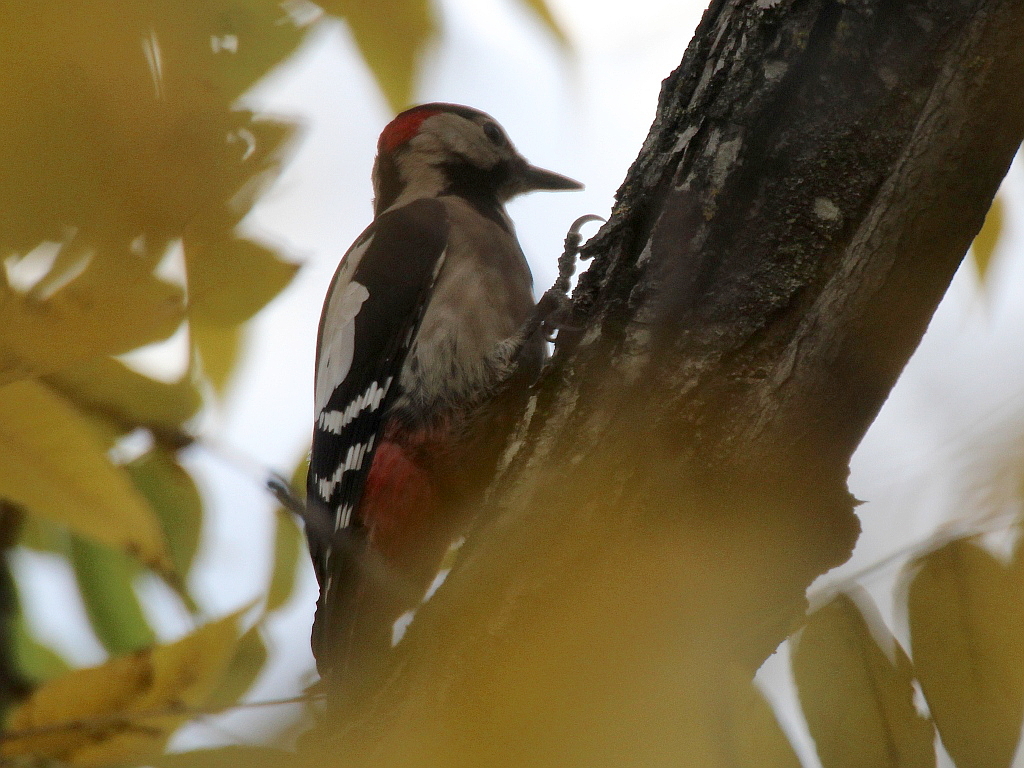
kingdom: Animalia
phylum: Chordata
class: Aves
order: Piciformes
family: Picidae
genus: Dendrocopos
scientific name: Dendrocopos syriacus
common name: Syrian woodpecker
